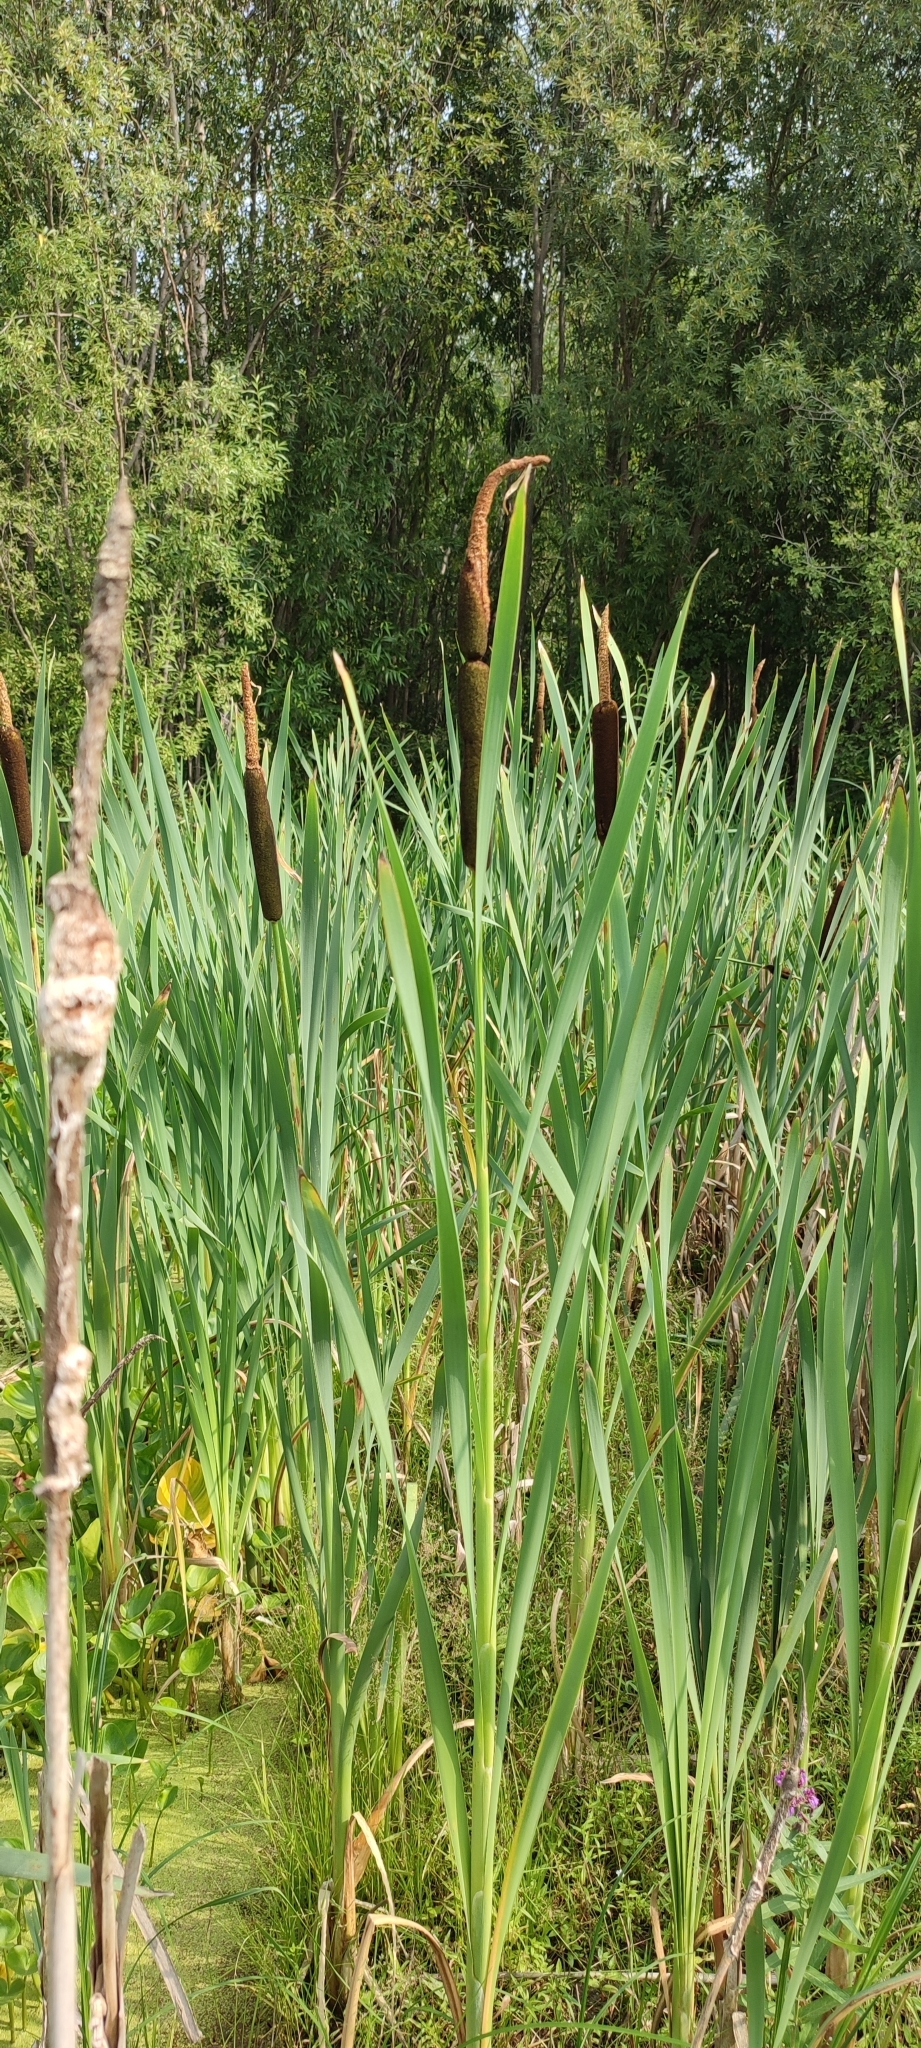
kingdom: Plantae
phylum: Tracheophyta
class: Liliopsida
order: Poales
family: Typhaceae
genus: Typha
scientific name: Typha latifolia
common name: Broadleaf cattail
